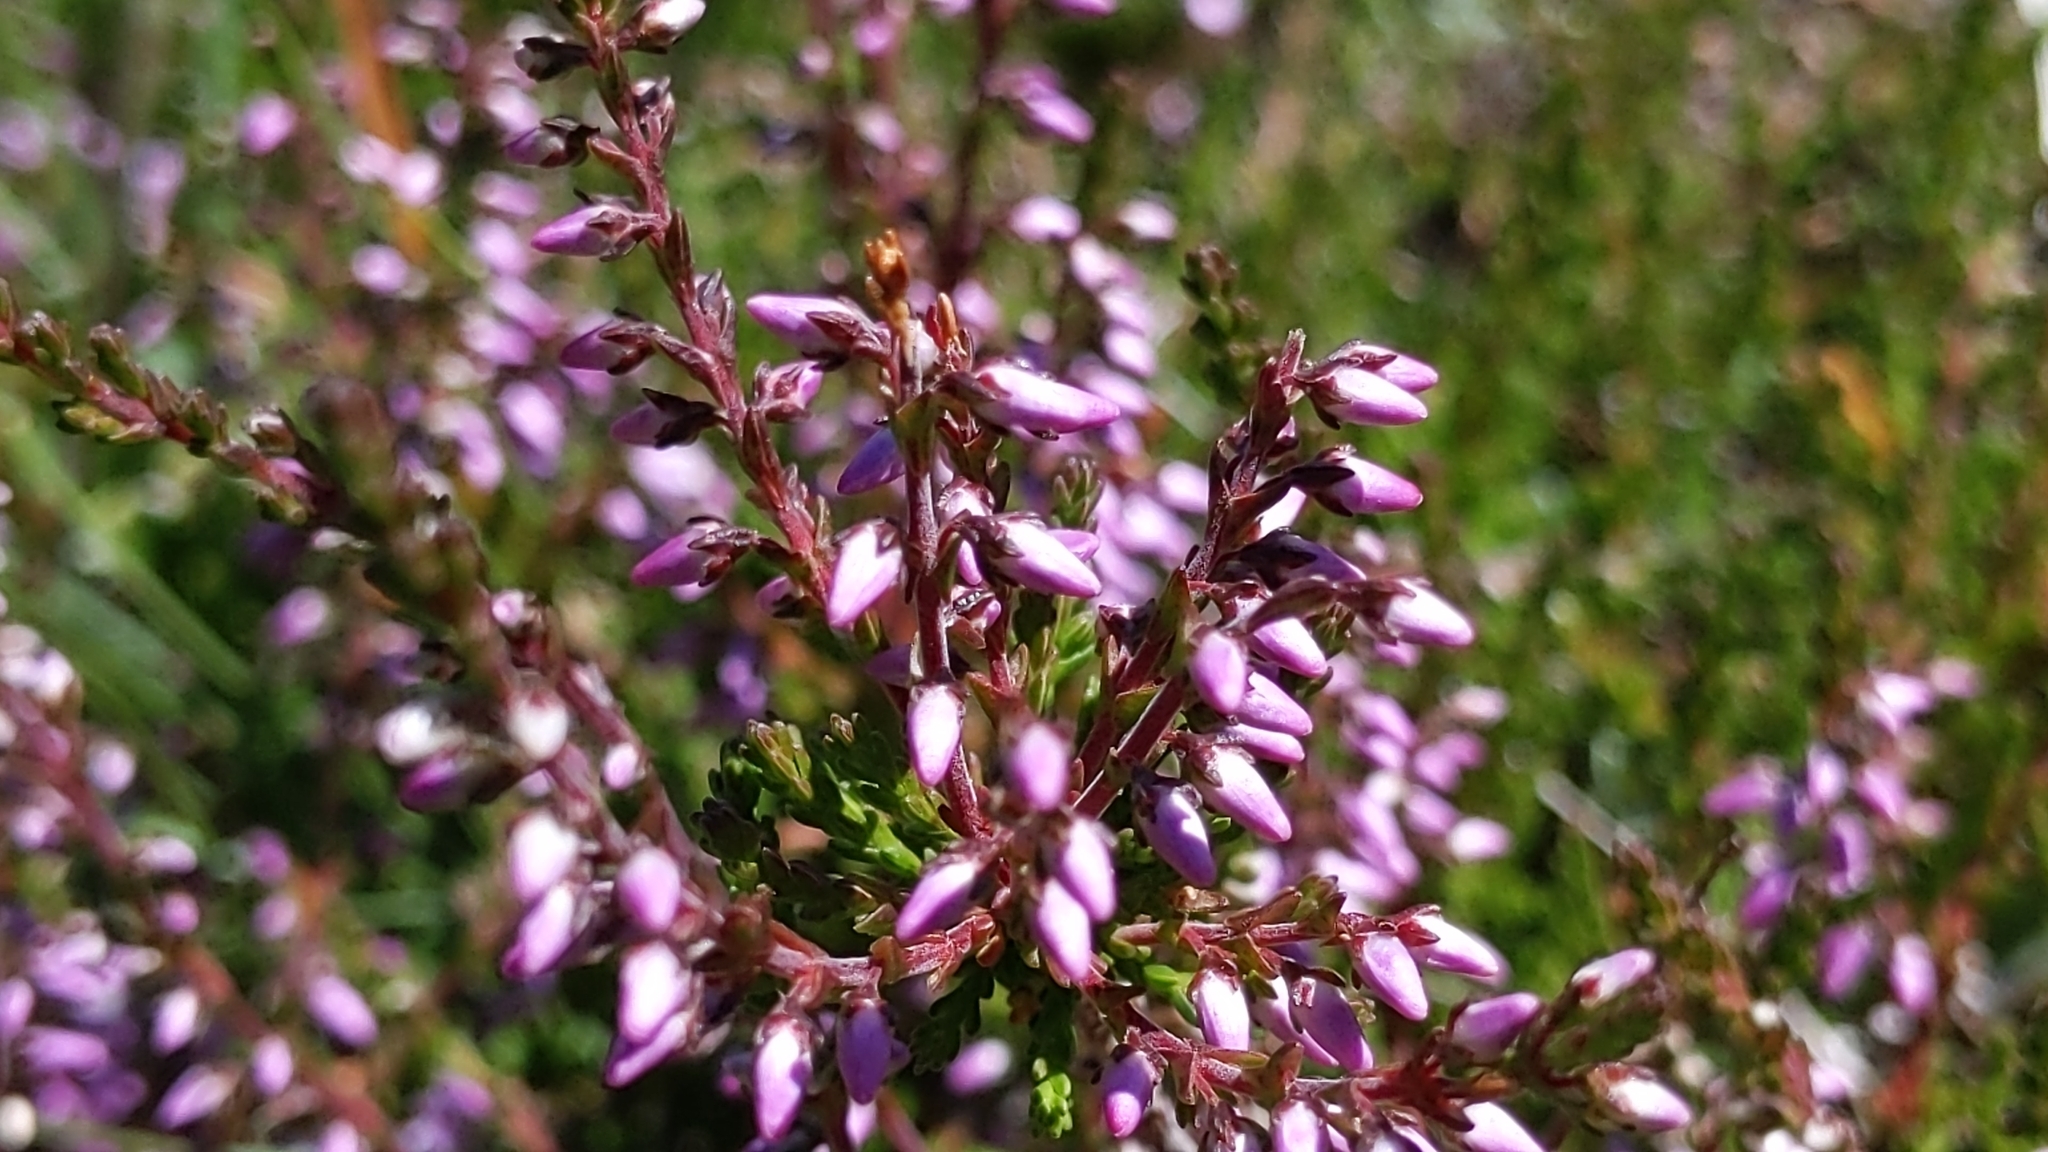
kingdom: Plantae
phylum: Tracheophyta
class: Magnoliopsida
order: Ericales
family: Ericaceae
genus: Calluna
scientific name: Calluna vulgaris
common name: Heather
